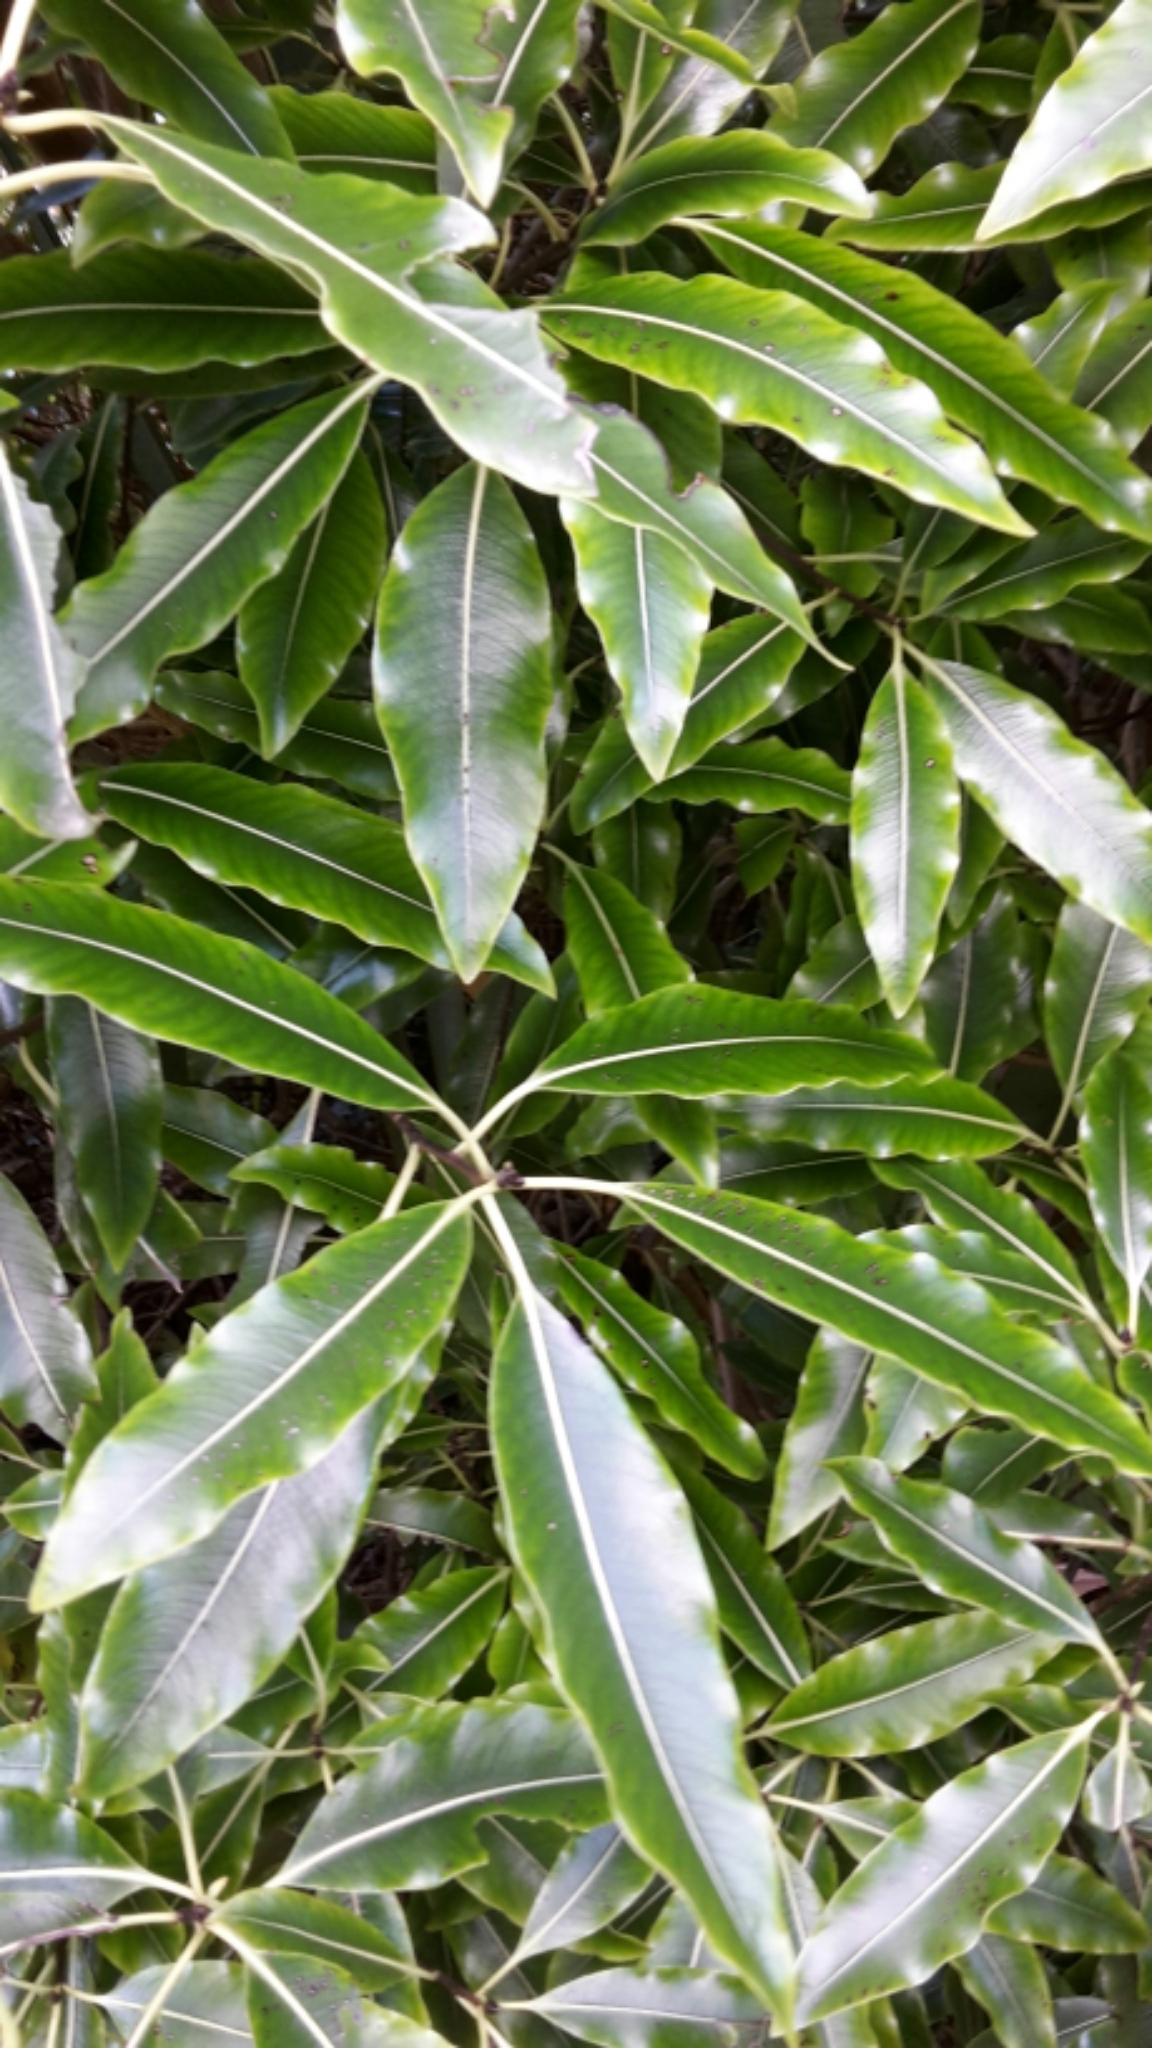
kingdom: Plantae
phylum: Tracheophyta
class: Magnoliopsida
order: Apiales
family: Pittosporaceae
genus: Pittosporum
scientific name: Pittosporum eugenioides
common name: Lemonwood
